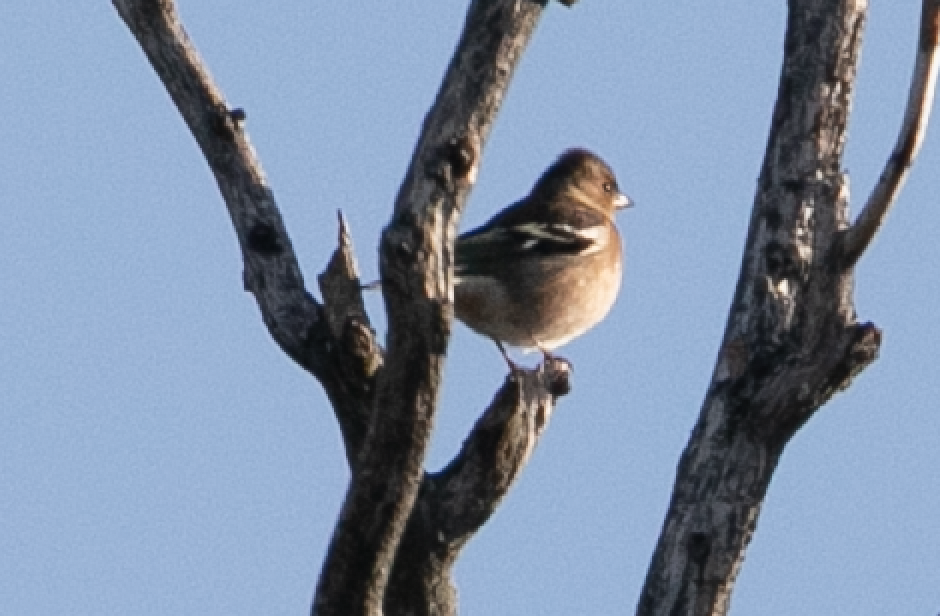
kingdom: Animalia
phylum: Chordata
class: Aves
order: Passeriformes
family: Fringillidae
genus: Fringilla
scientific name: Fringilla coelebs
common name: Common chaffinch
